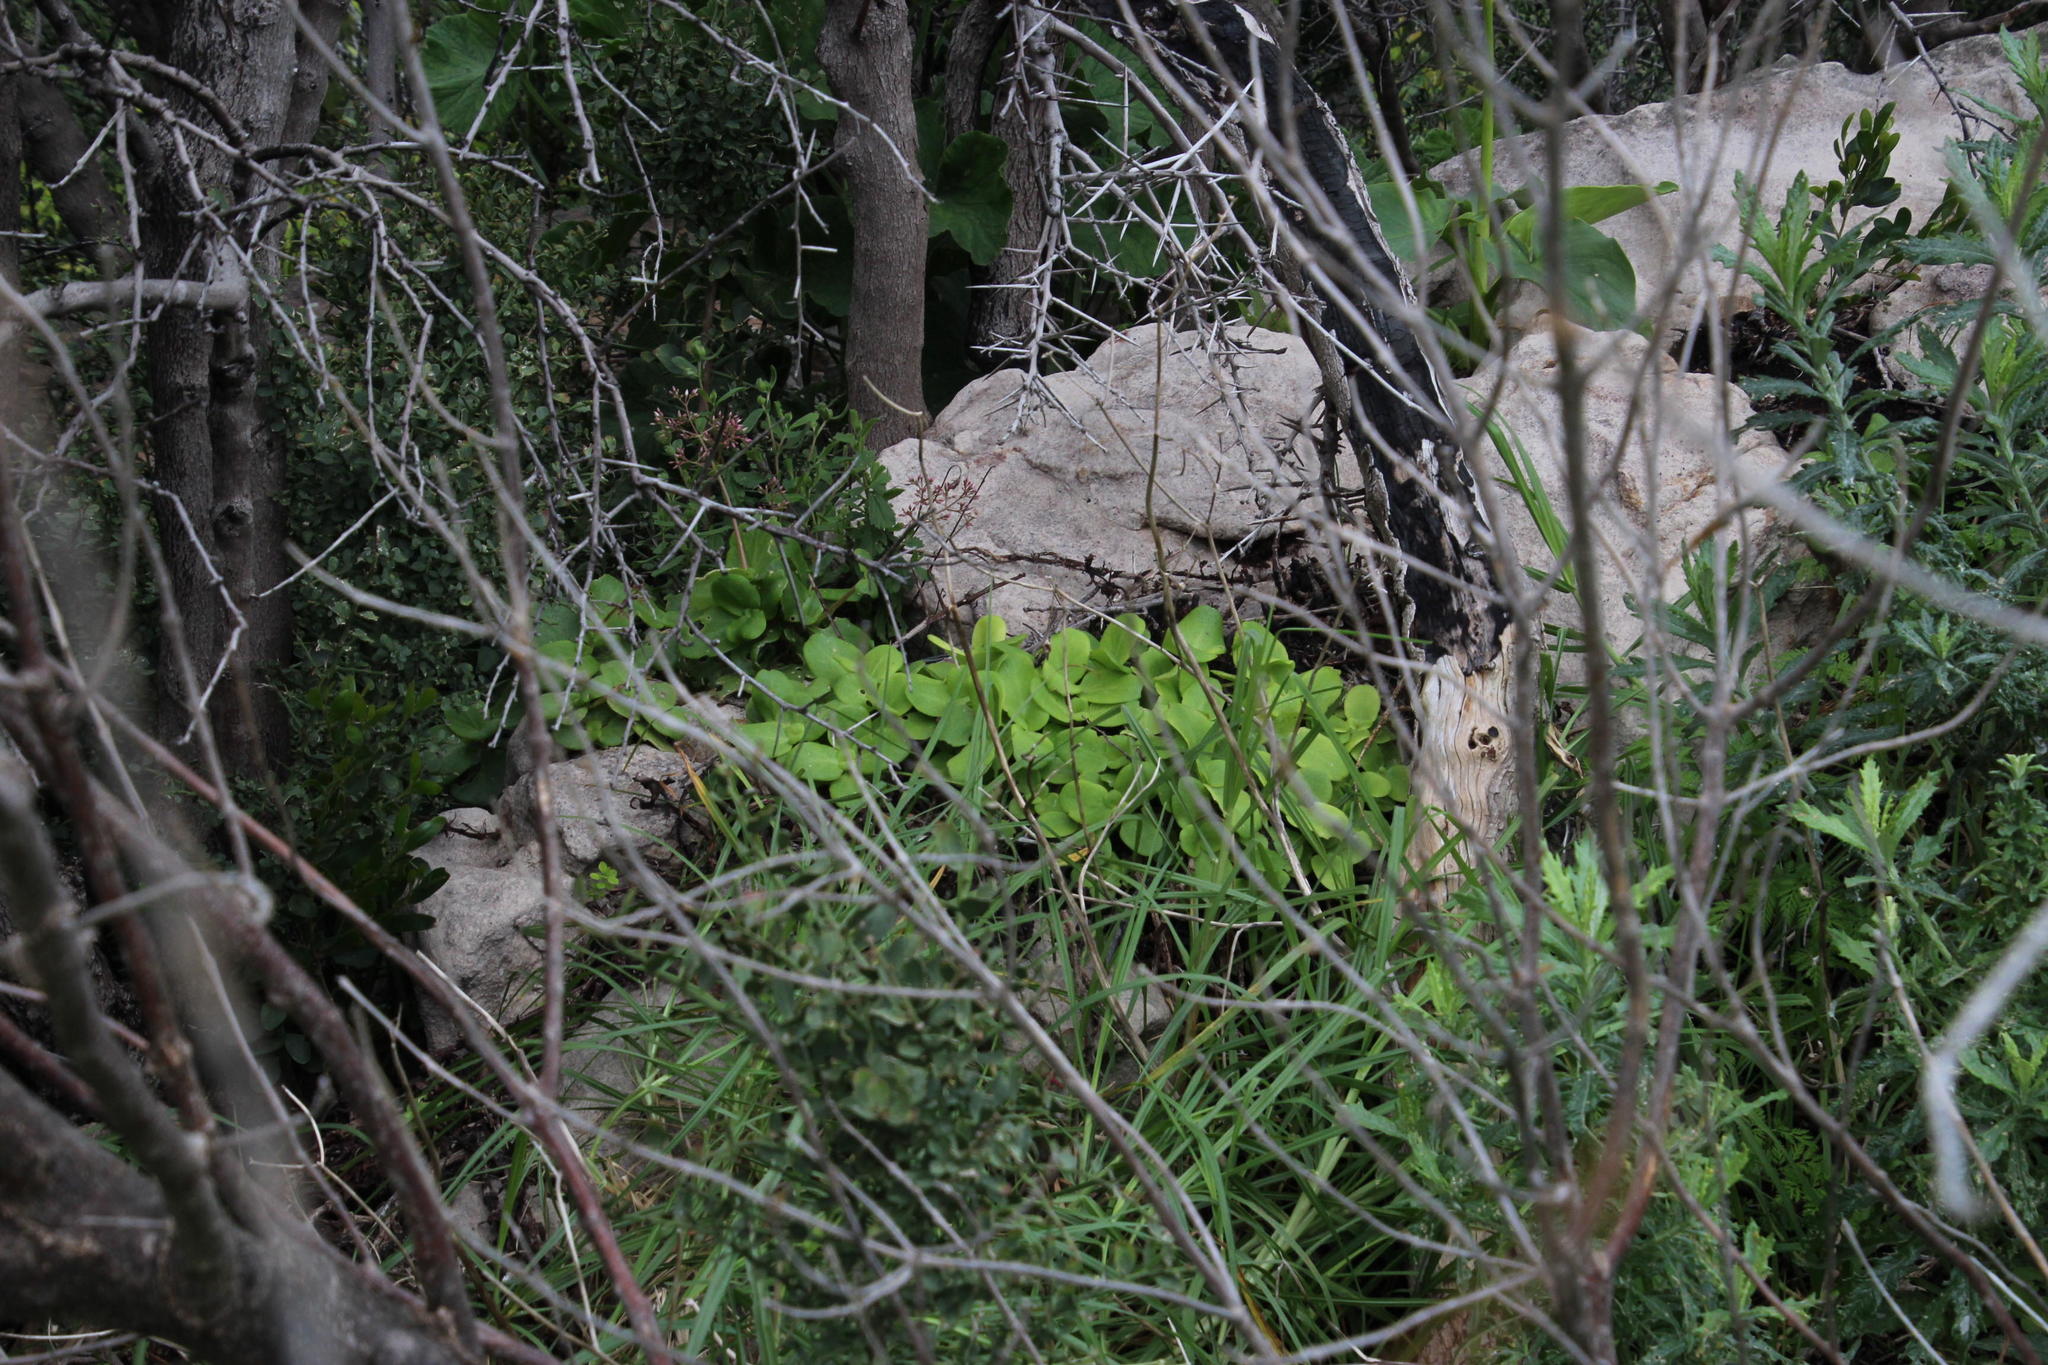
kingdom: Plantae
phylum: Tracheophyta
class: Magnoliopsida
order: Saxifragales
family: Crassulaceae
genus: Crassula
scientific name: Crassula multicava
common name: Cape province pygmyweed
